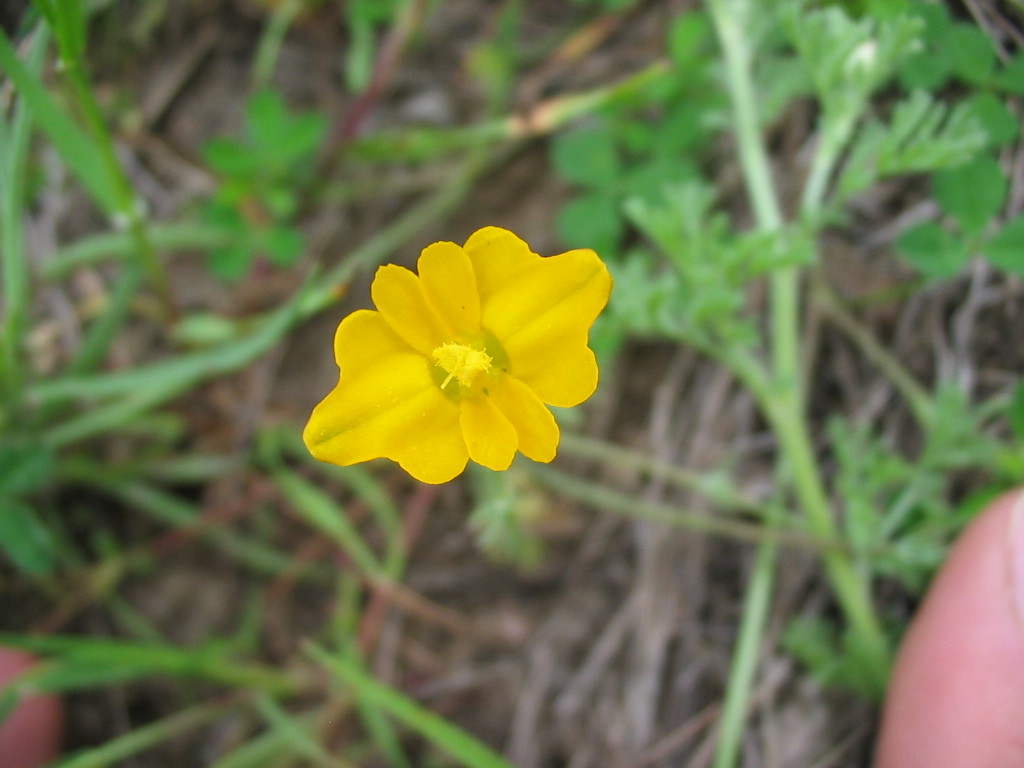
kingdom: Plantae
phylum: Tracheophyta
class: Magnoliopsida
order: Ranunculales
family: Papaveraceae
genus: Hypecoum
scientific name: Hypecoum imberbe
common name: Sicklefruit hypecoum
